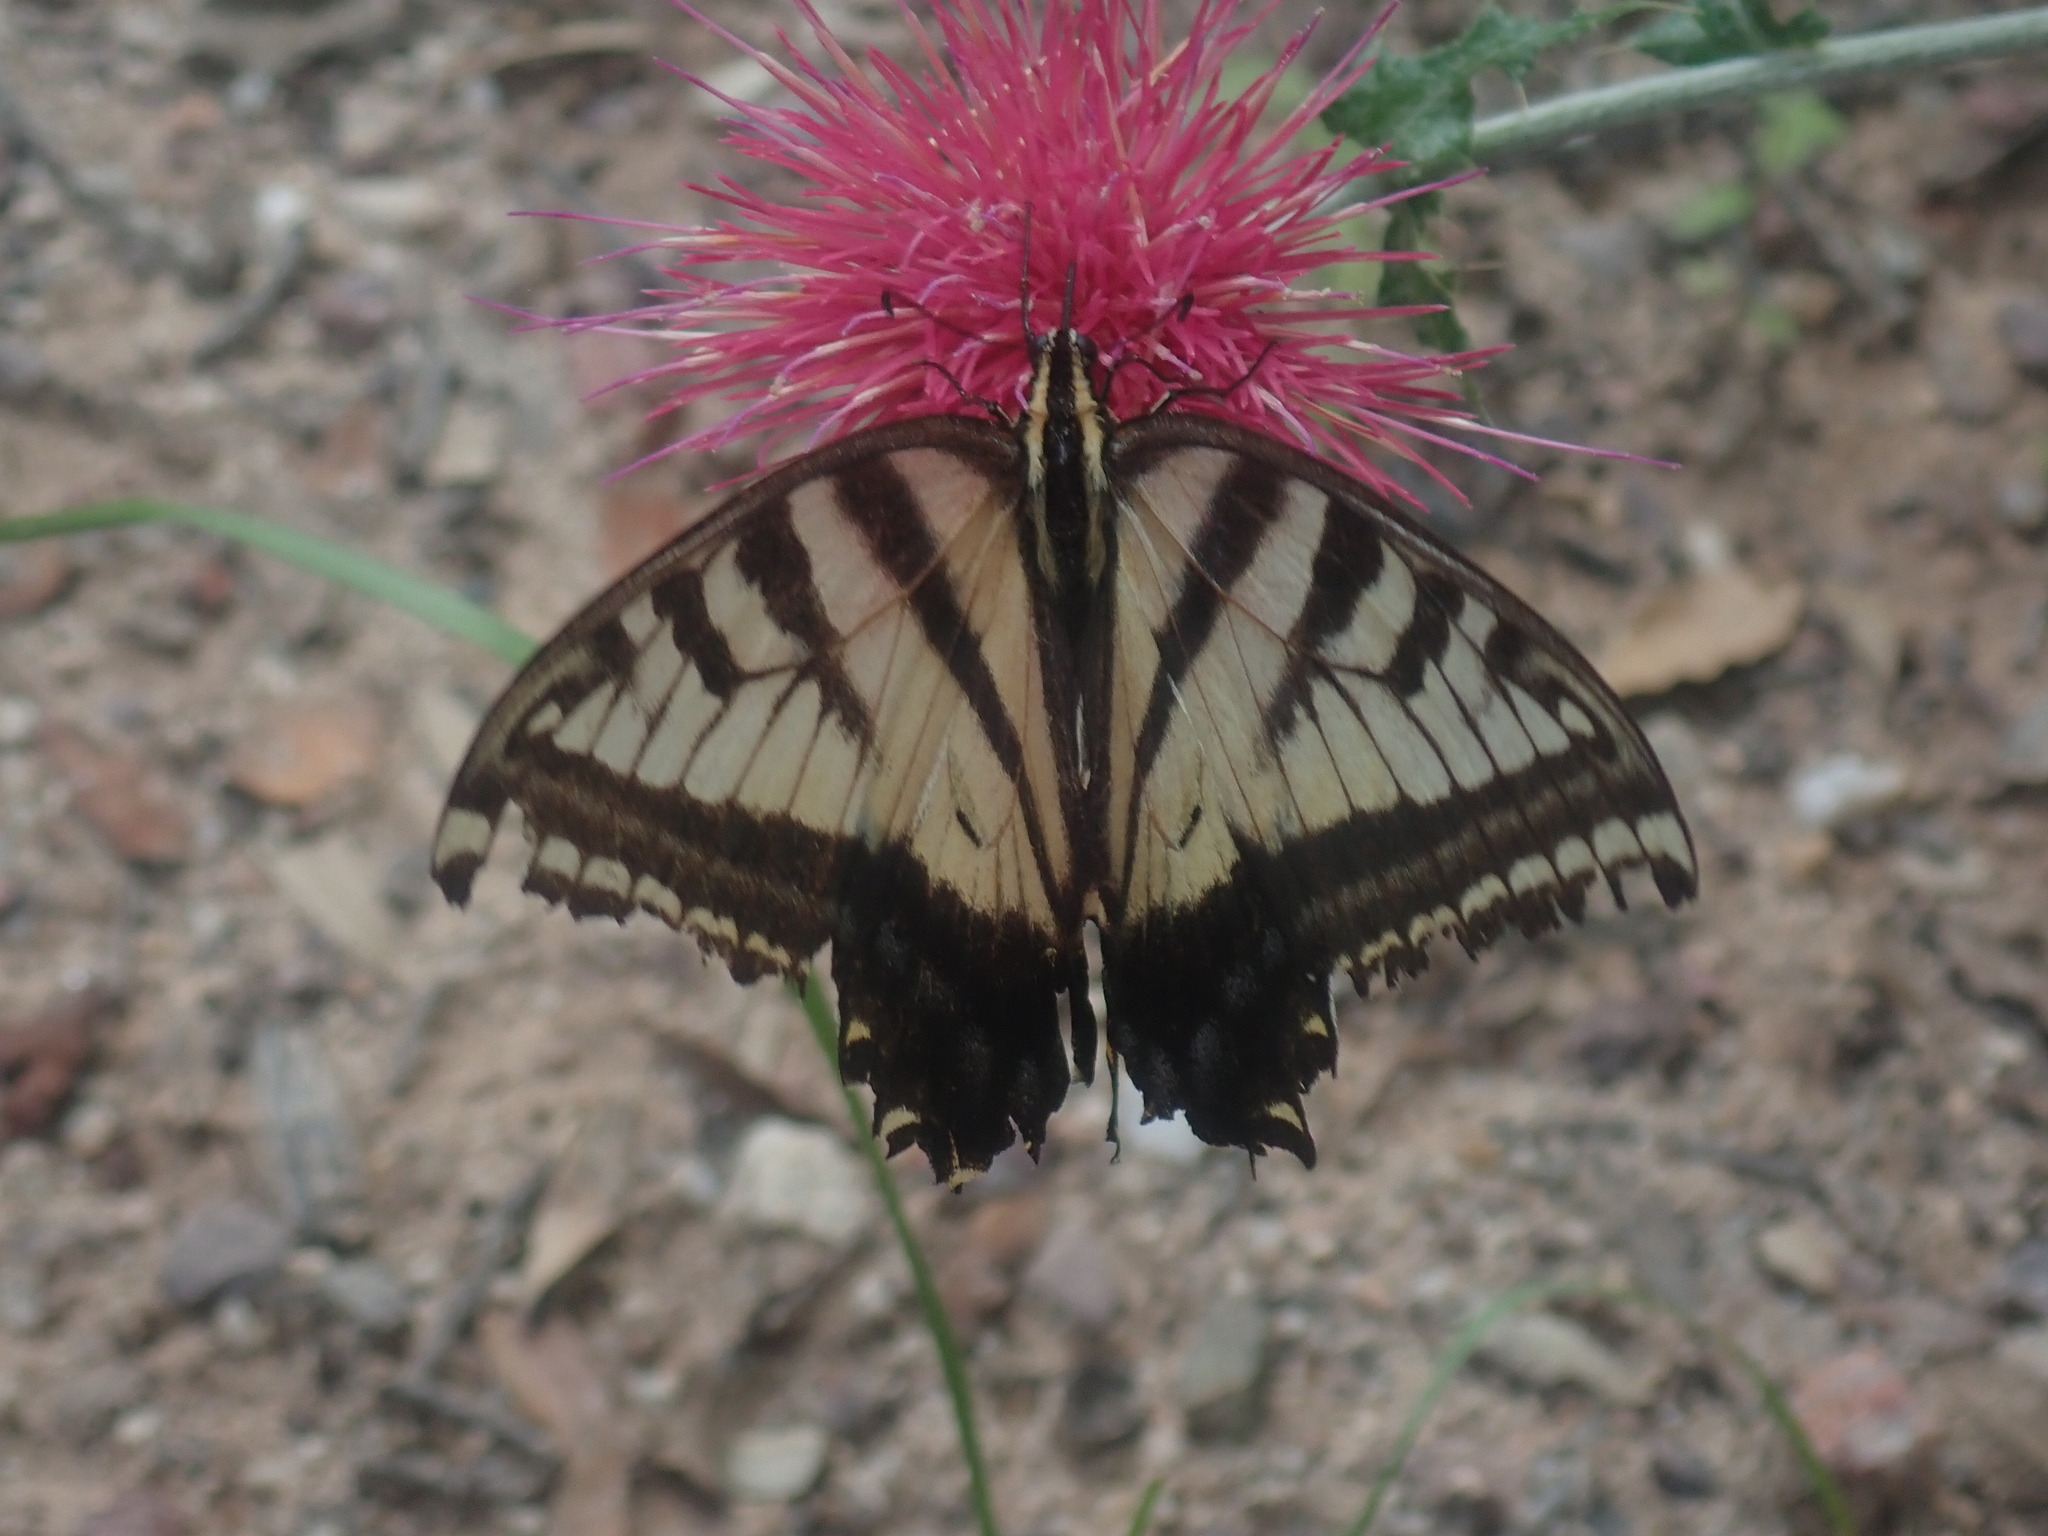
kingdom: Animalia
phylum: Arthropoda
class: Insecta
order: Lepidoptera
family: Papilionidae
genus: Papilio
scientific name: Papilio multicaudata
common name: Two-tailed tiger swallowtail
